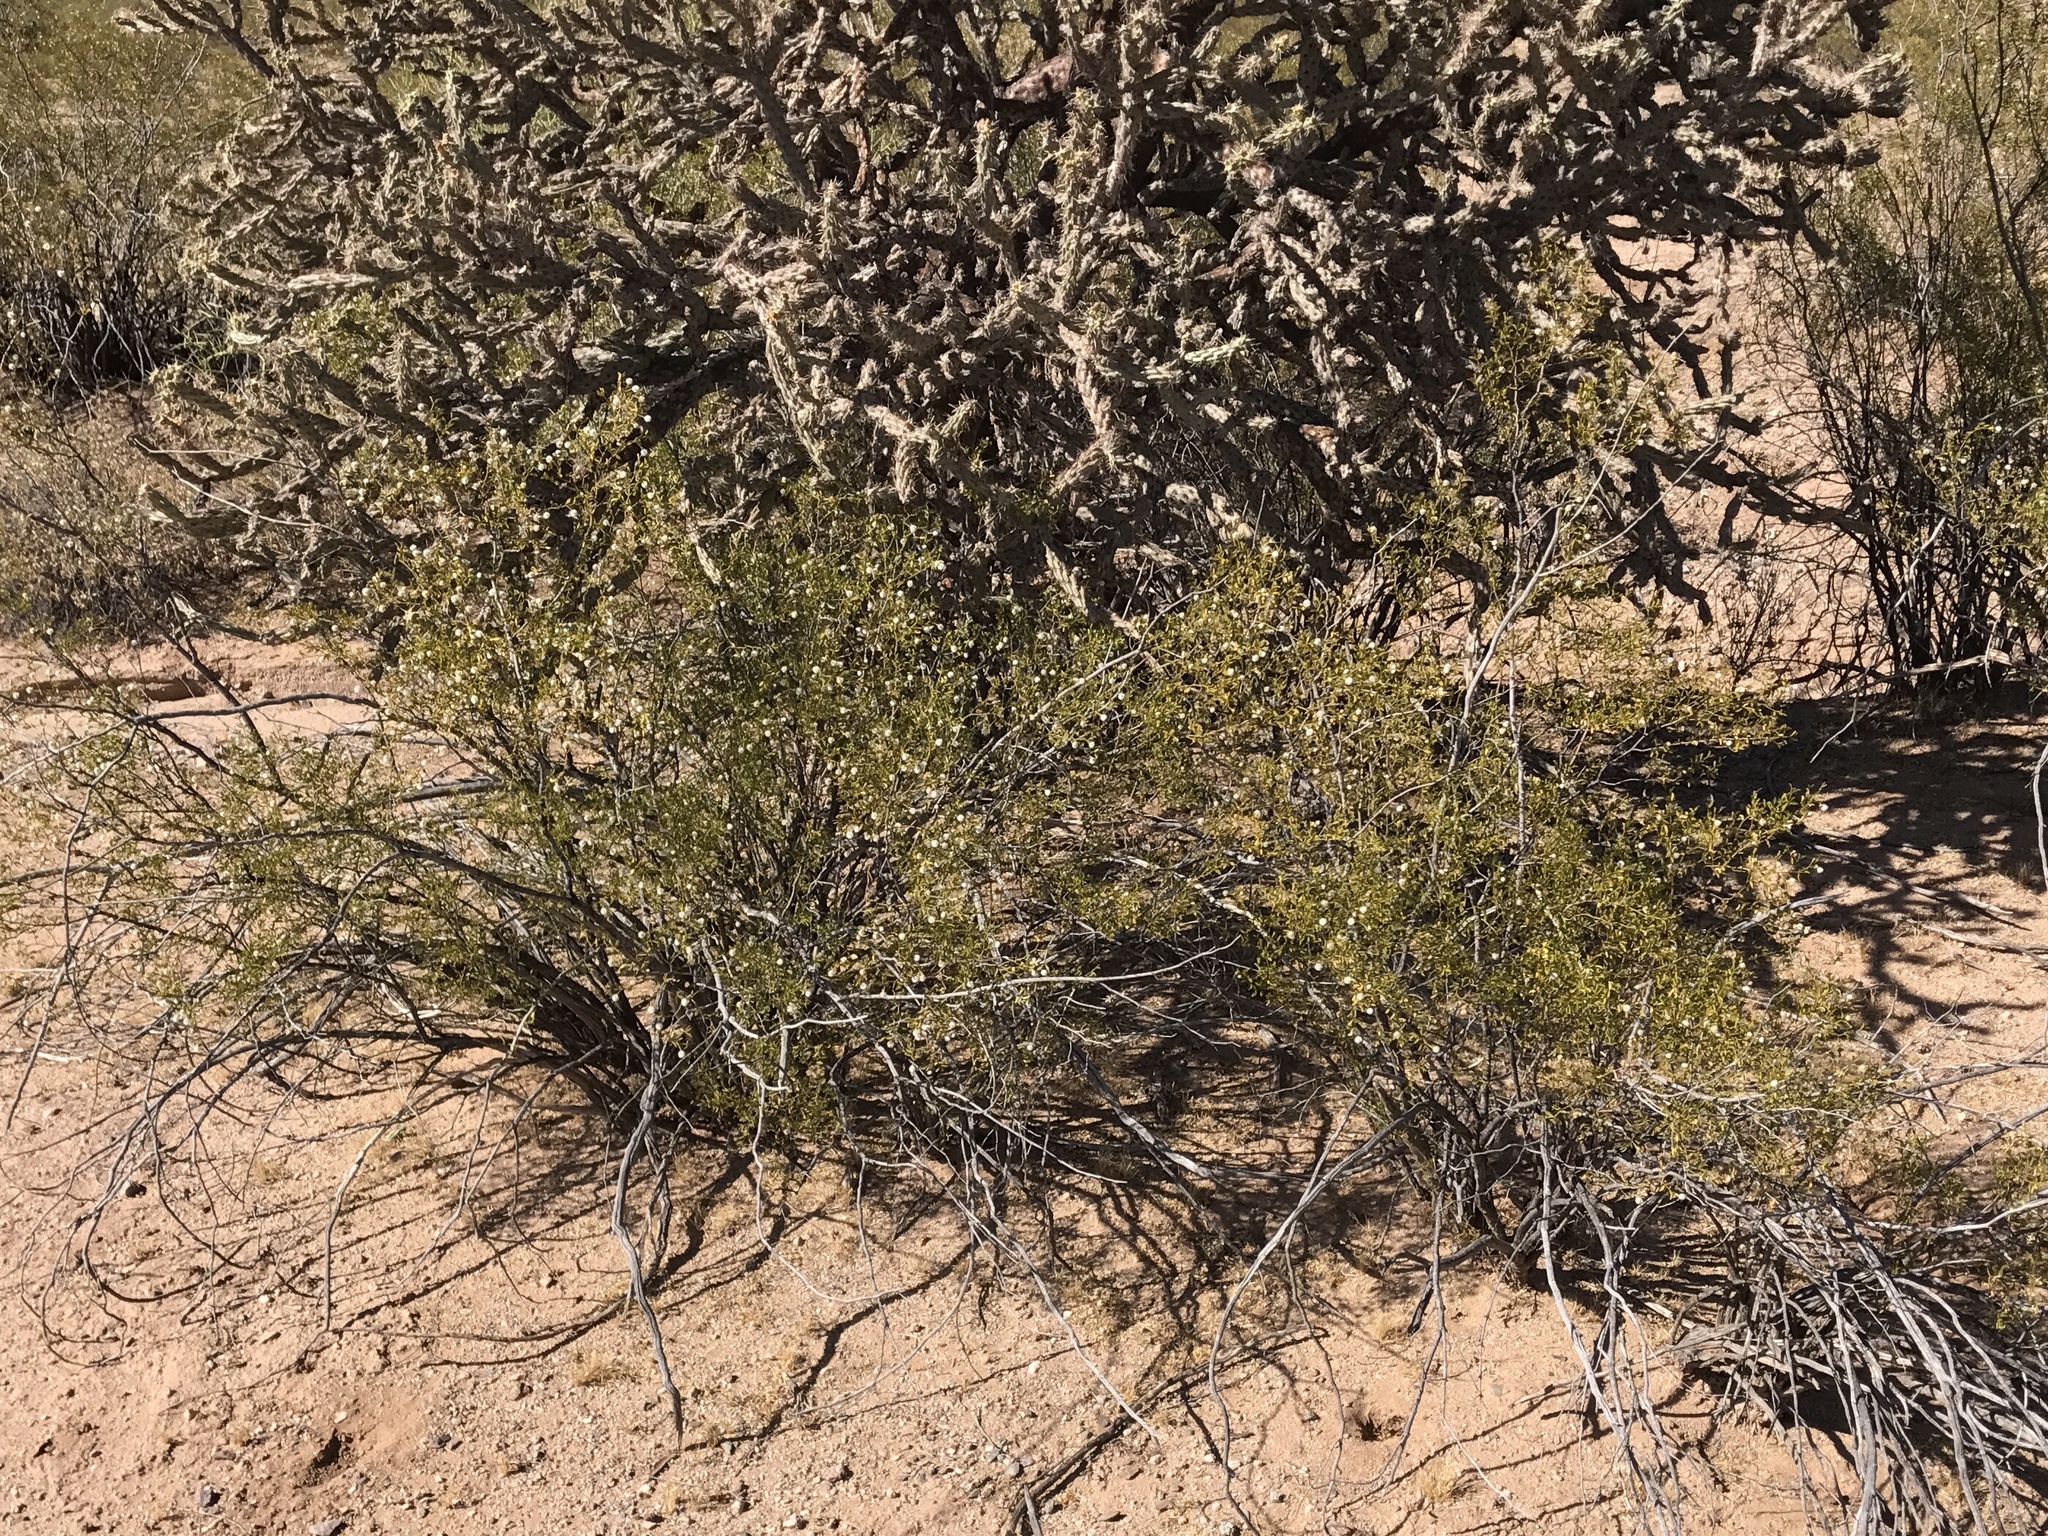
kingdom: Plantae
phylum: Tracheophyta
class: Magnoliopsida
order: Zygophyllales
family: Zygophyllaceae
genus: Larrea
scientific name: Larrea tridentata
